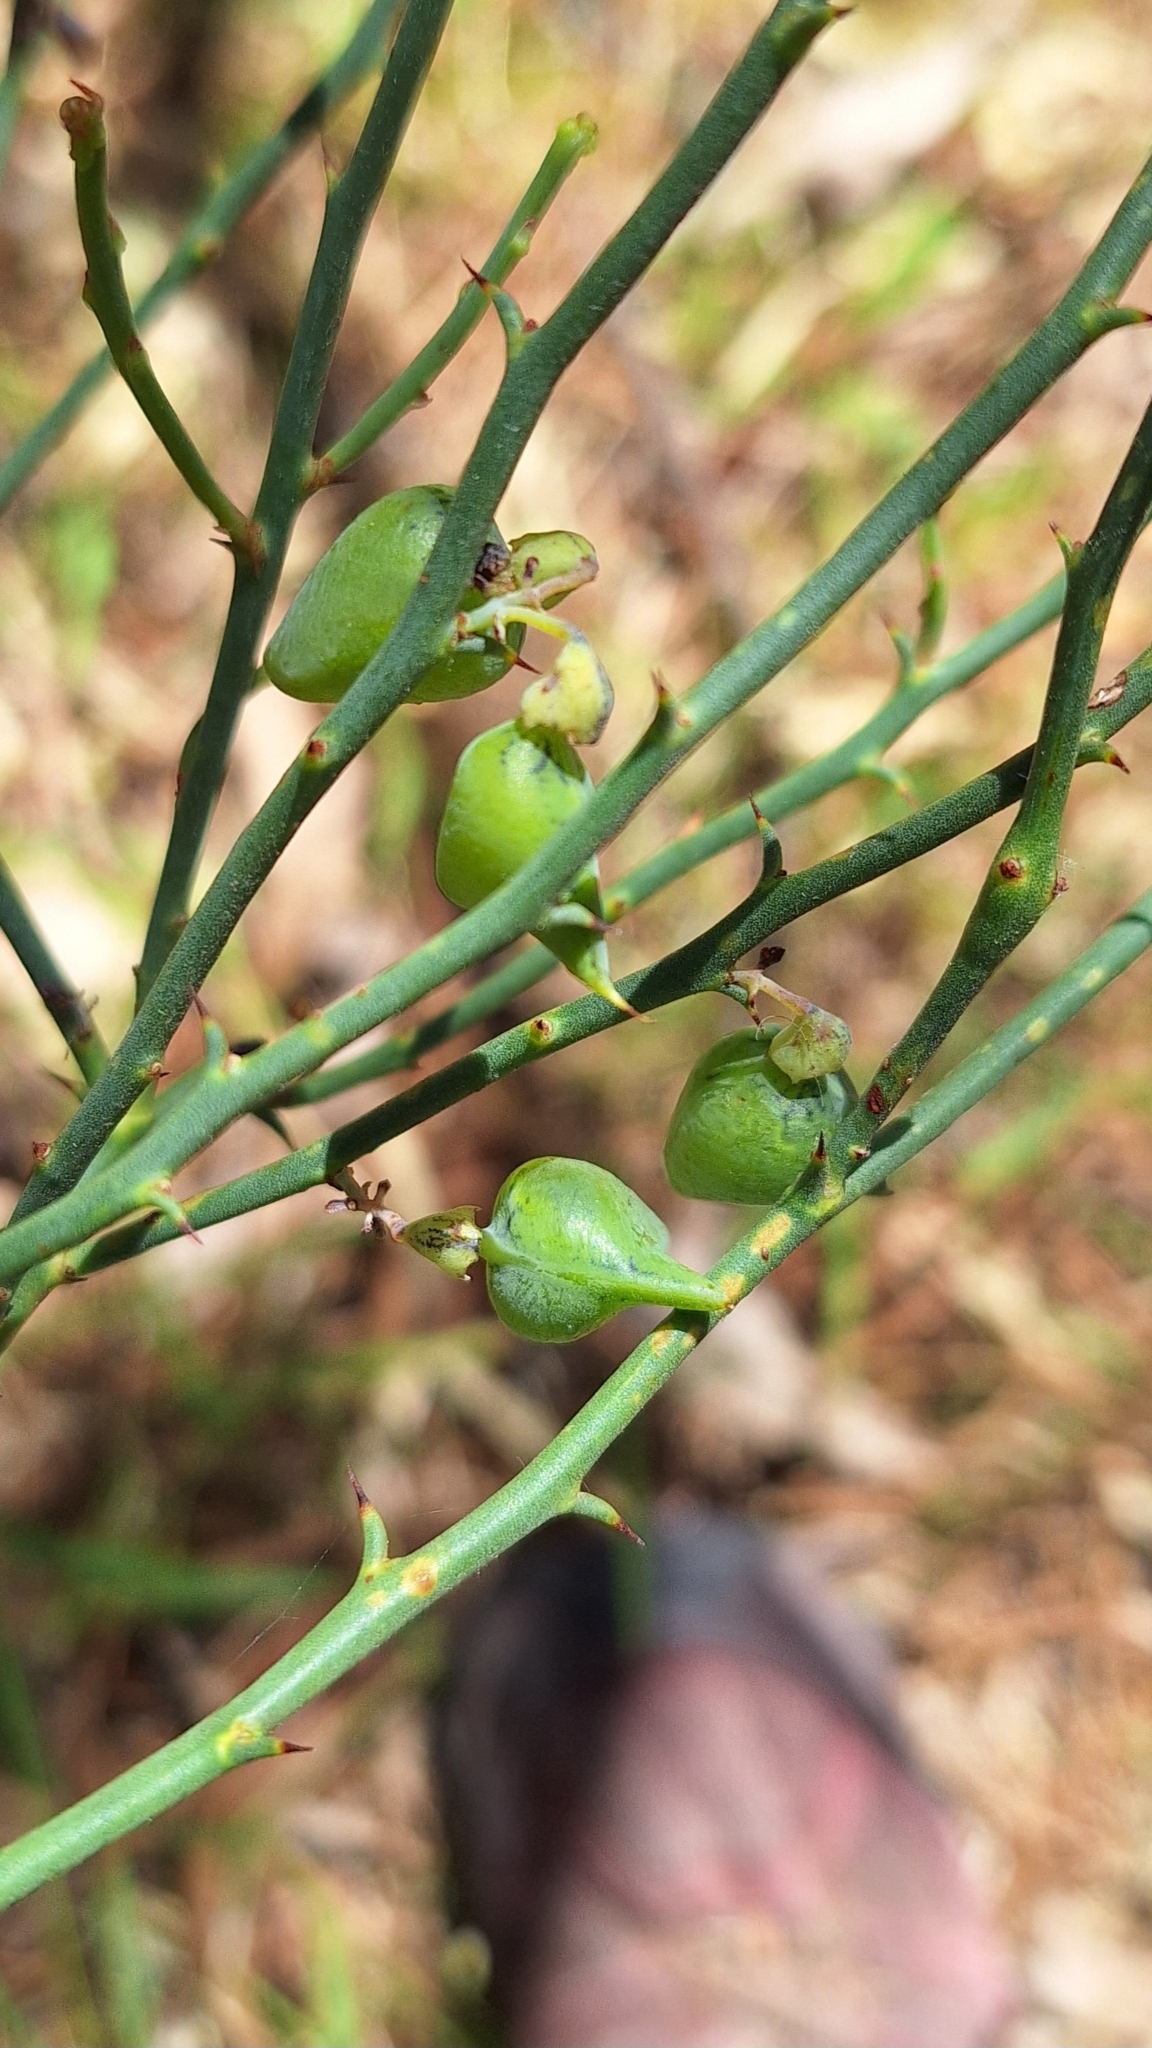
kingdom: Plantae
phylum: Tracheophyta
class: Magnoliopsida
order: Fabales
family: Fabaceae
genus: Daviesia
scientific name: Daviesia brevifolia
